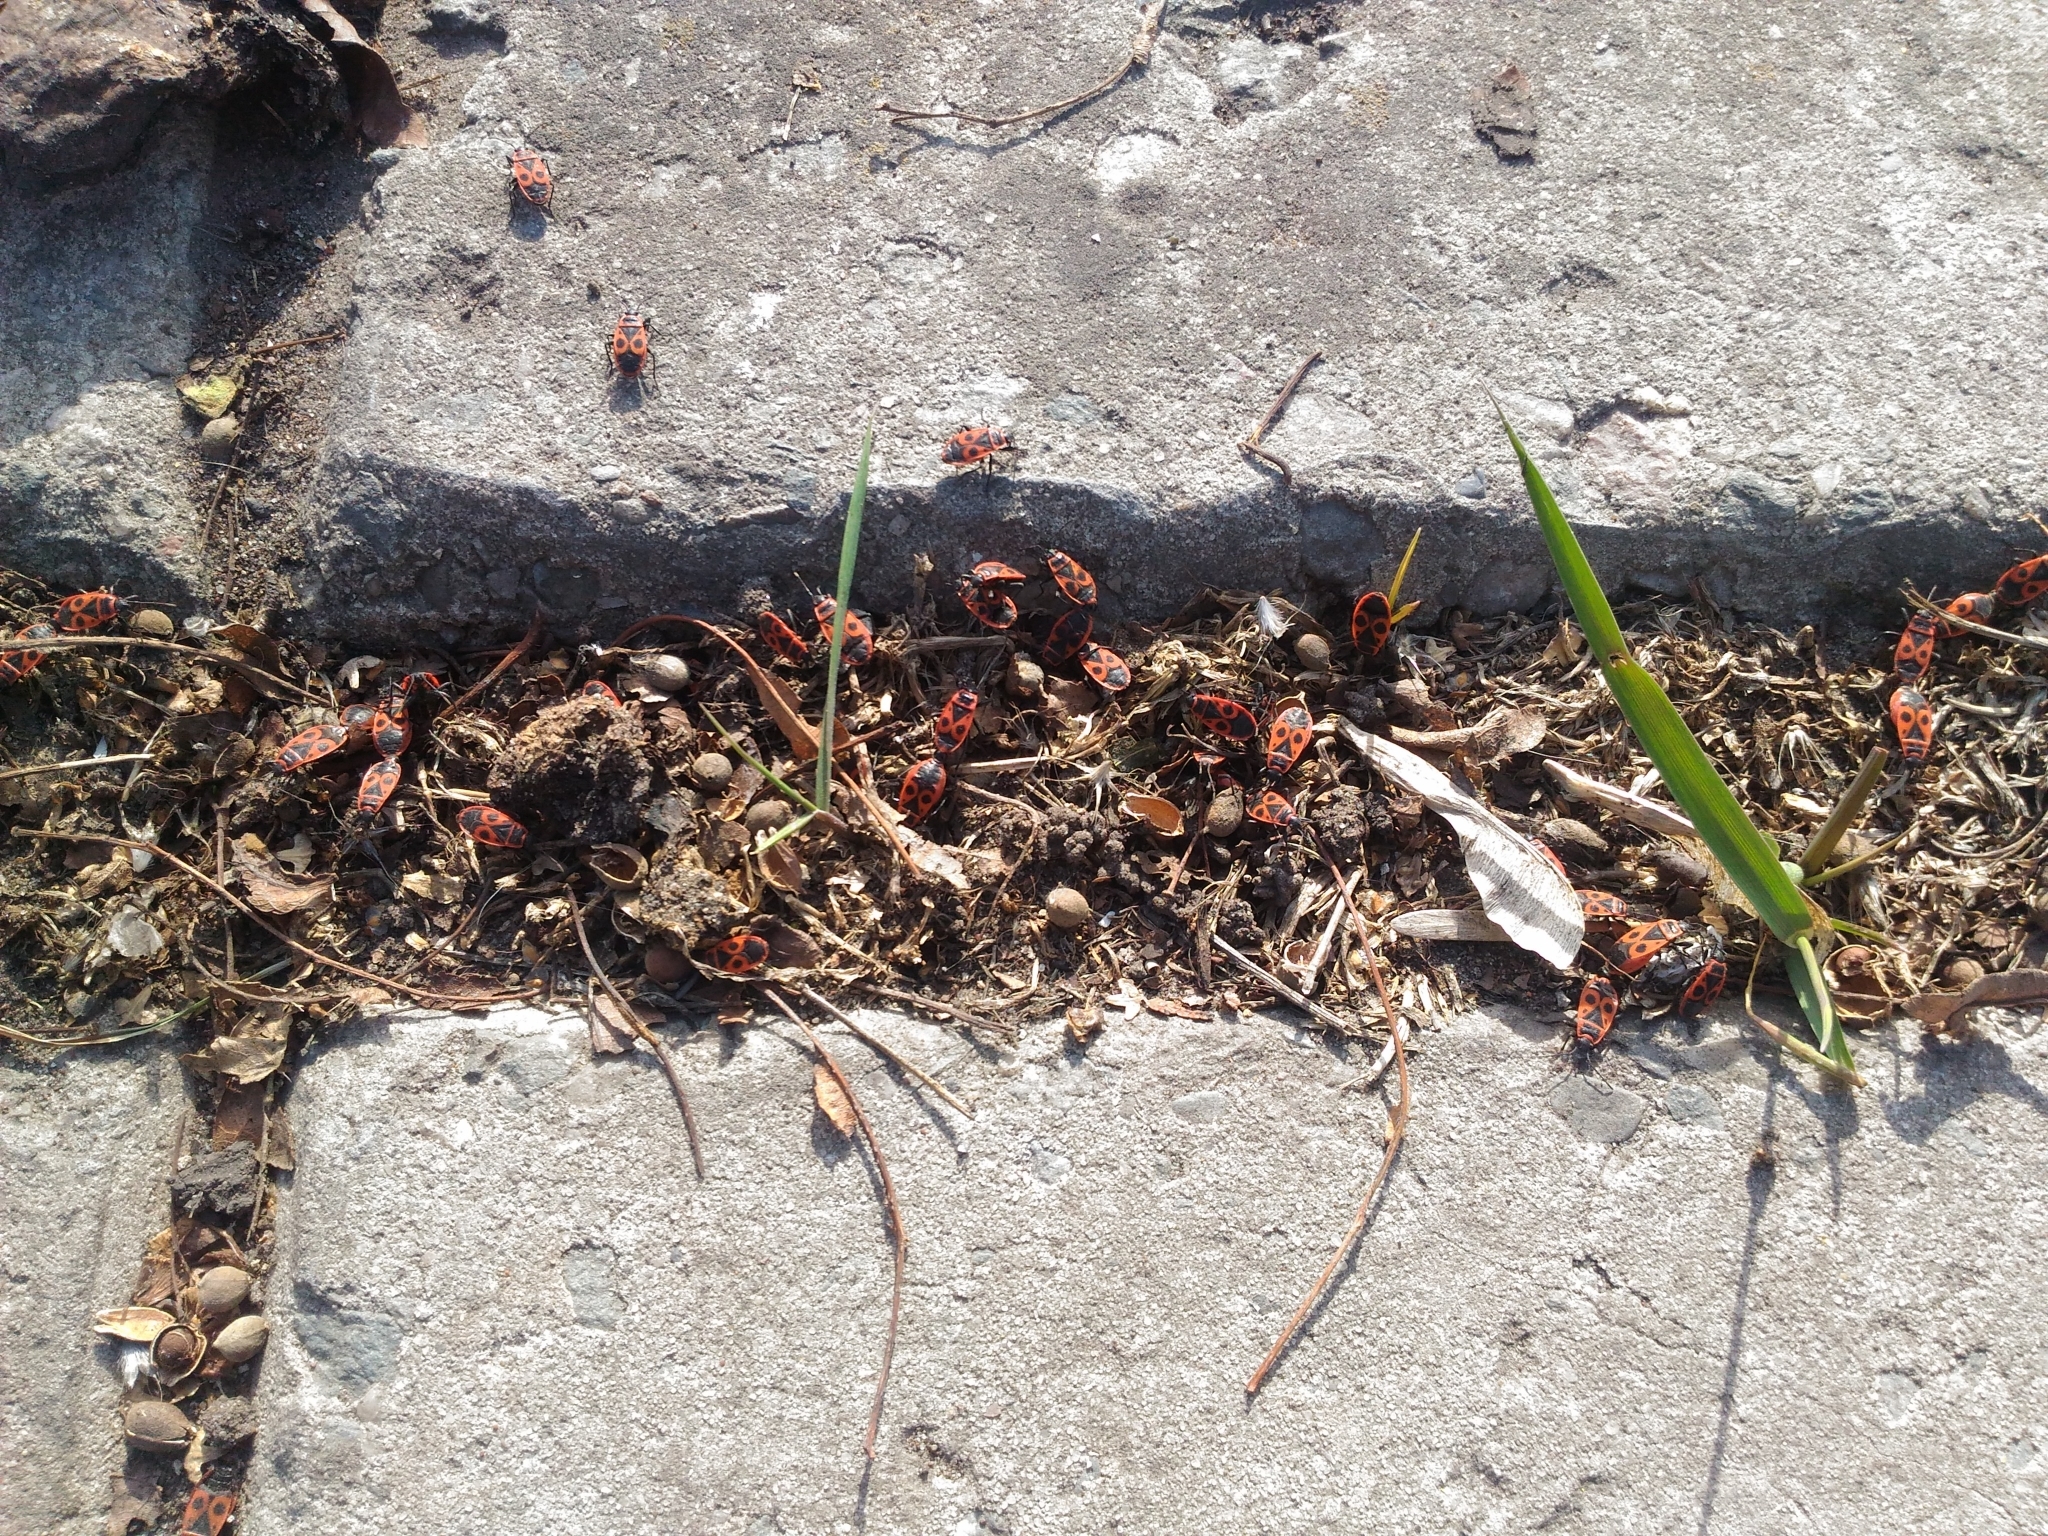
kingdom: Animalia
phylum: Arthropoda
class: Insecta
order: Hemiptera
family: Pyrrhocoridae
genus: Pyrrhocoris
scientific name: Pyrrhocoris apterus
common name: Firebug
